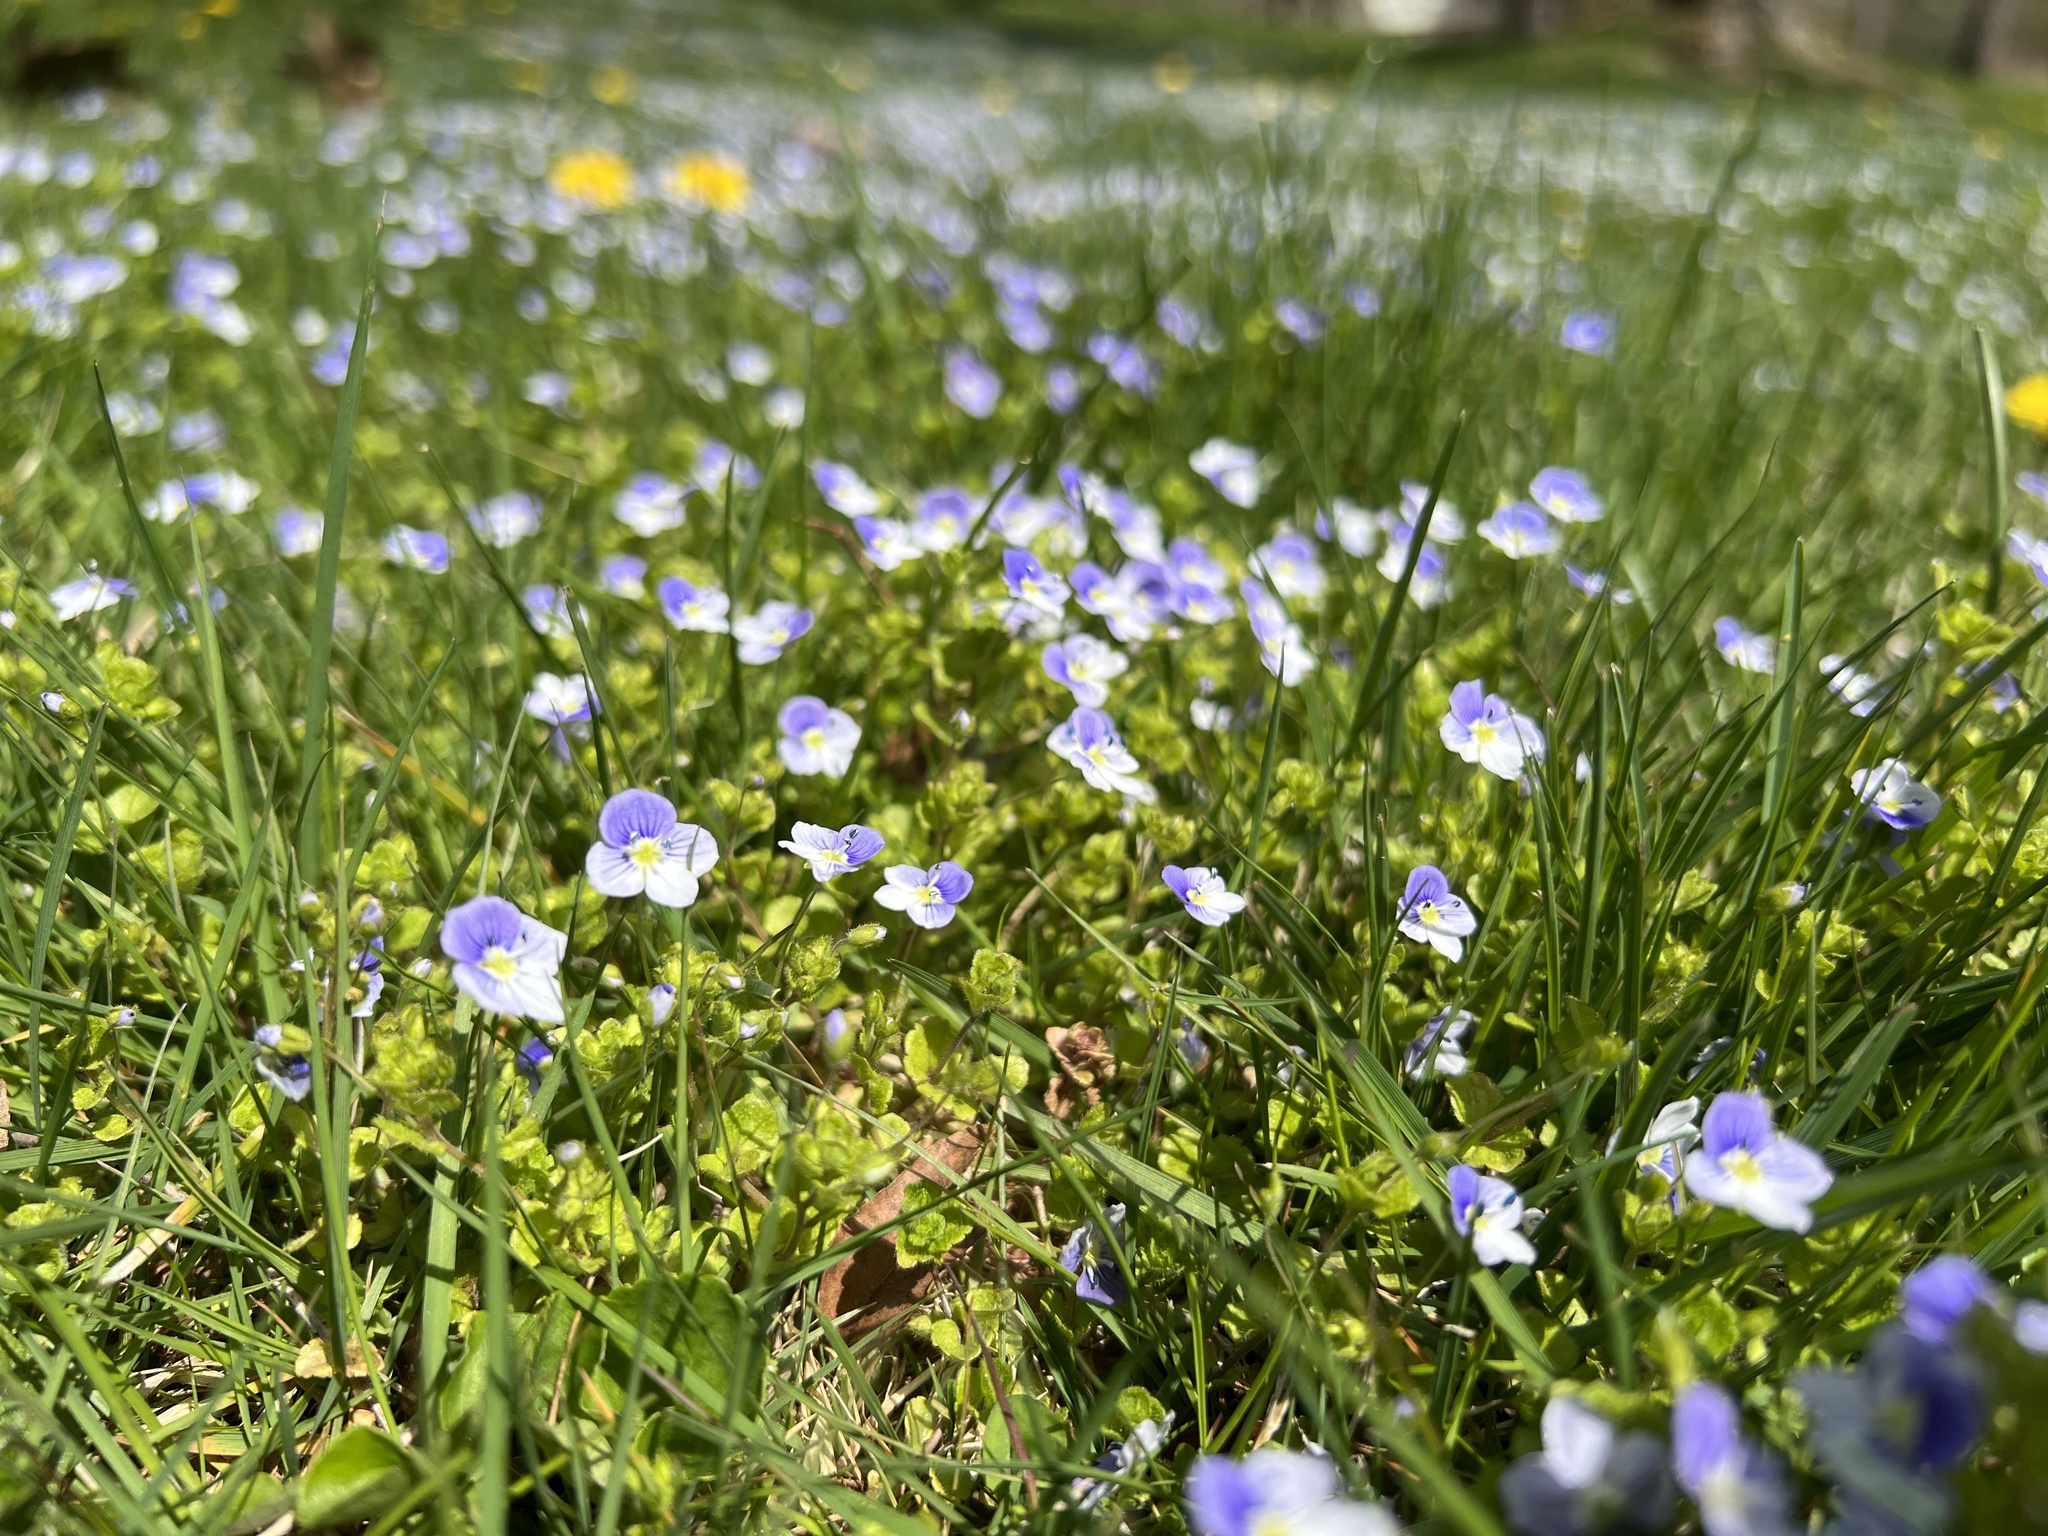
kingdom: Plantae
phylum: Tracheophyta
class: Magnoliopsida
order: Lamiales
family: Plantaginaceae
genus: Veronica
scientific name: Veronica filiformis
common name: Slender speedwell
